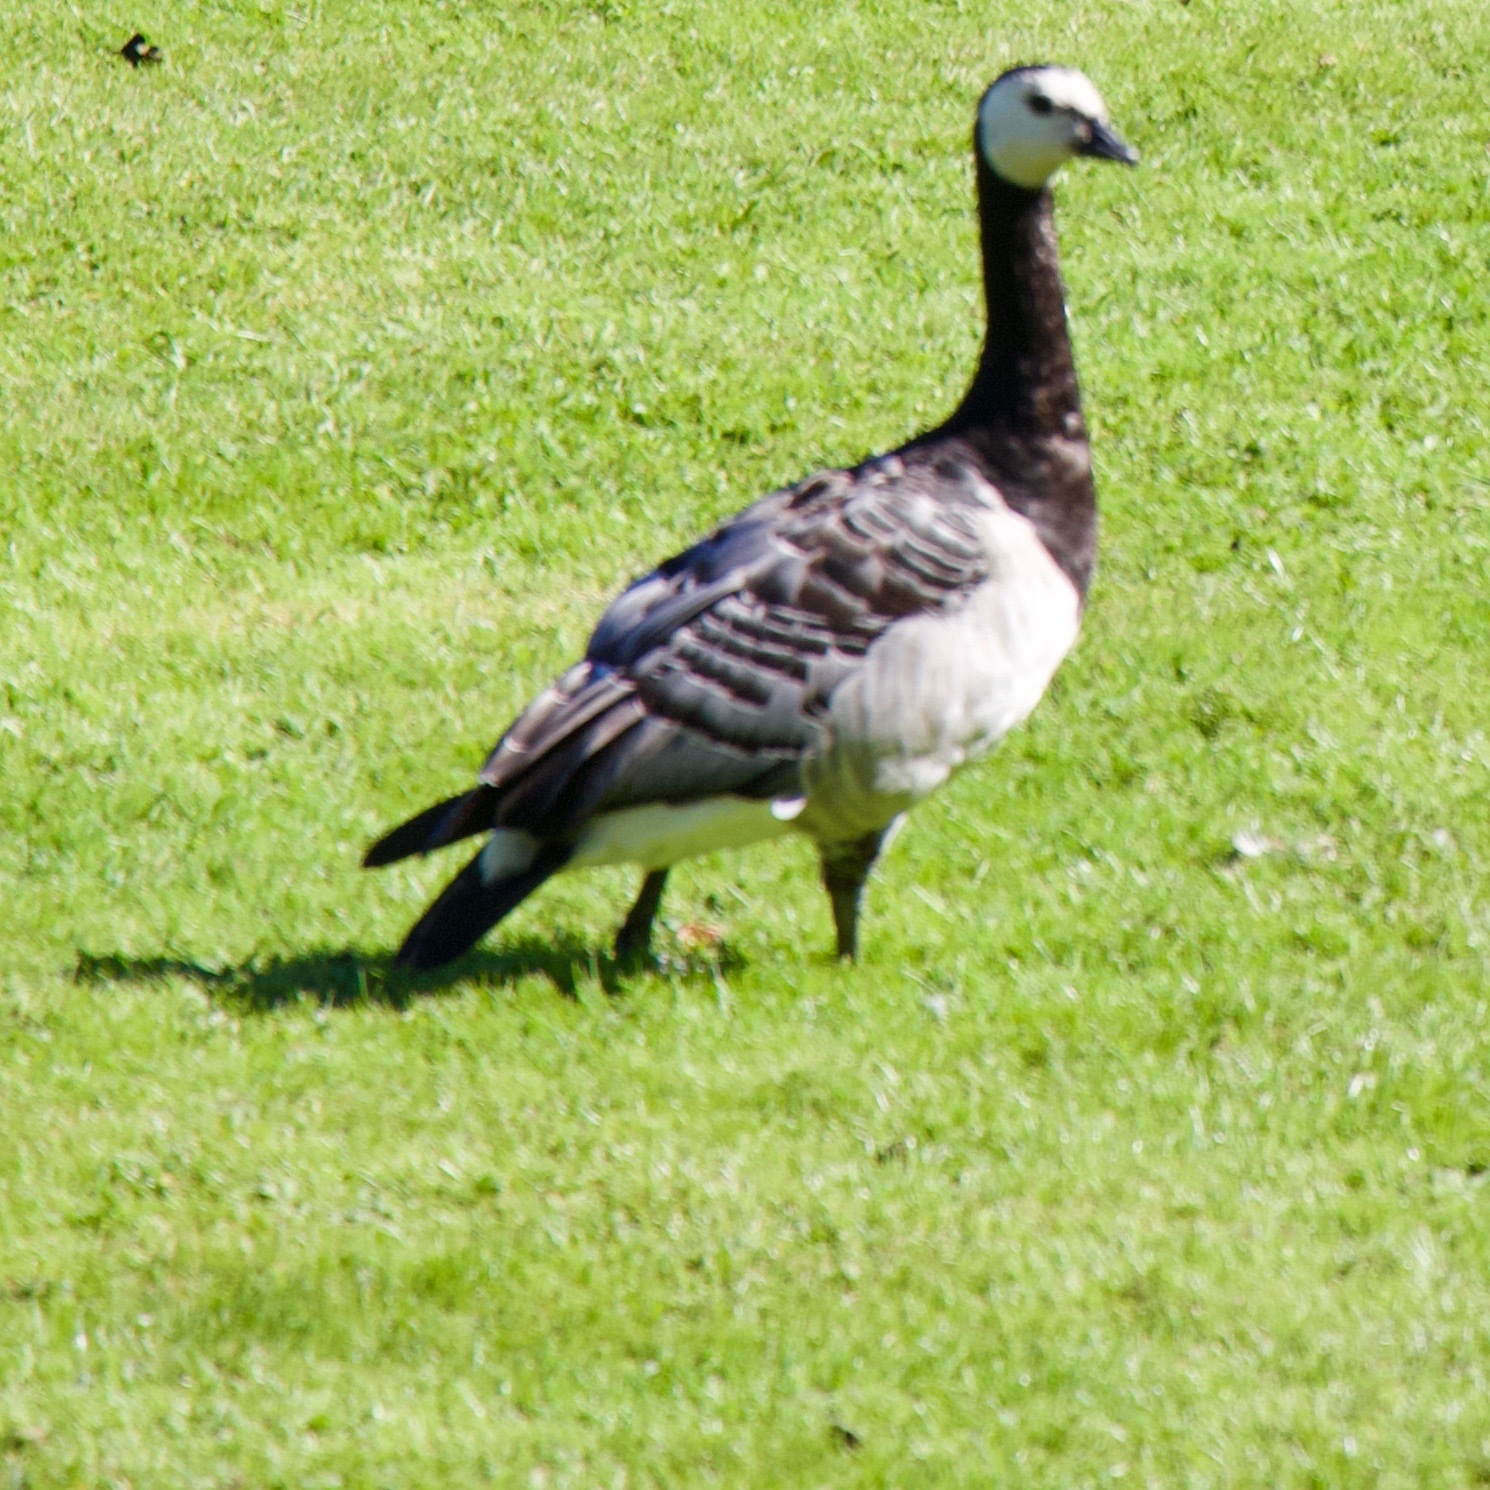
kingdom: Animalia
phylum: Chordata
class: Aves
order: Anseriformes
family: Anatidae
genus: Branta
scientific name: Branta leucopsis
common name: Barnacle goose
